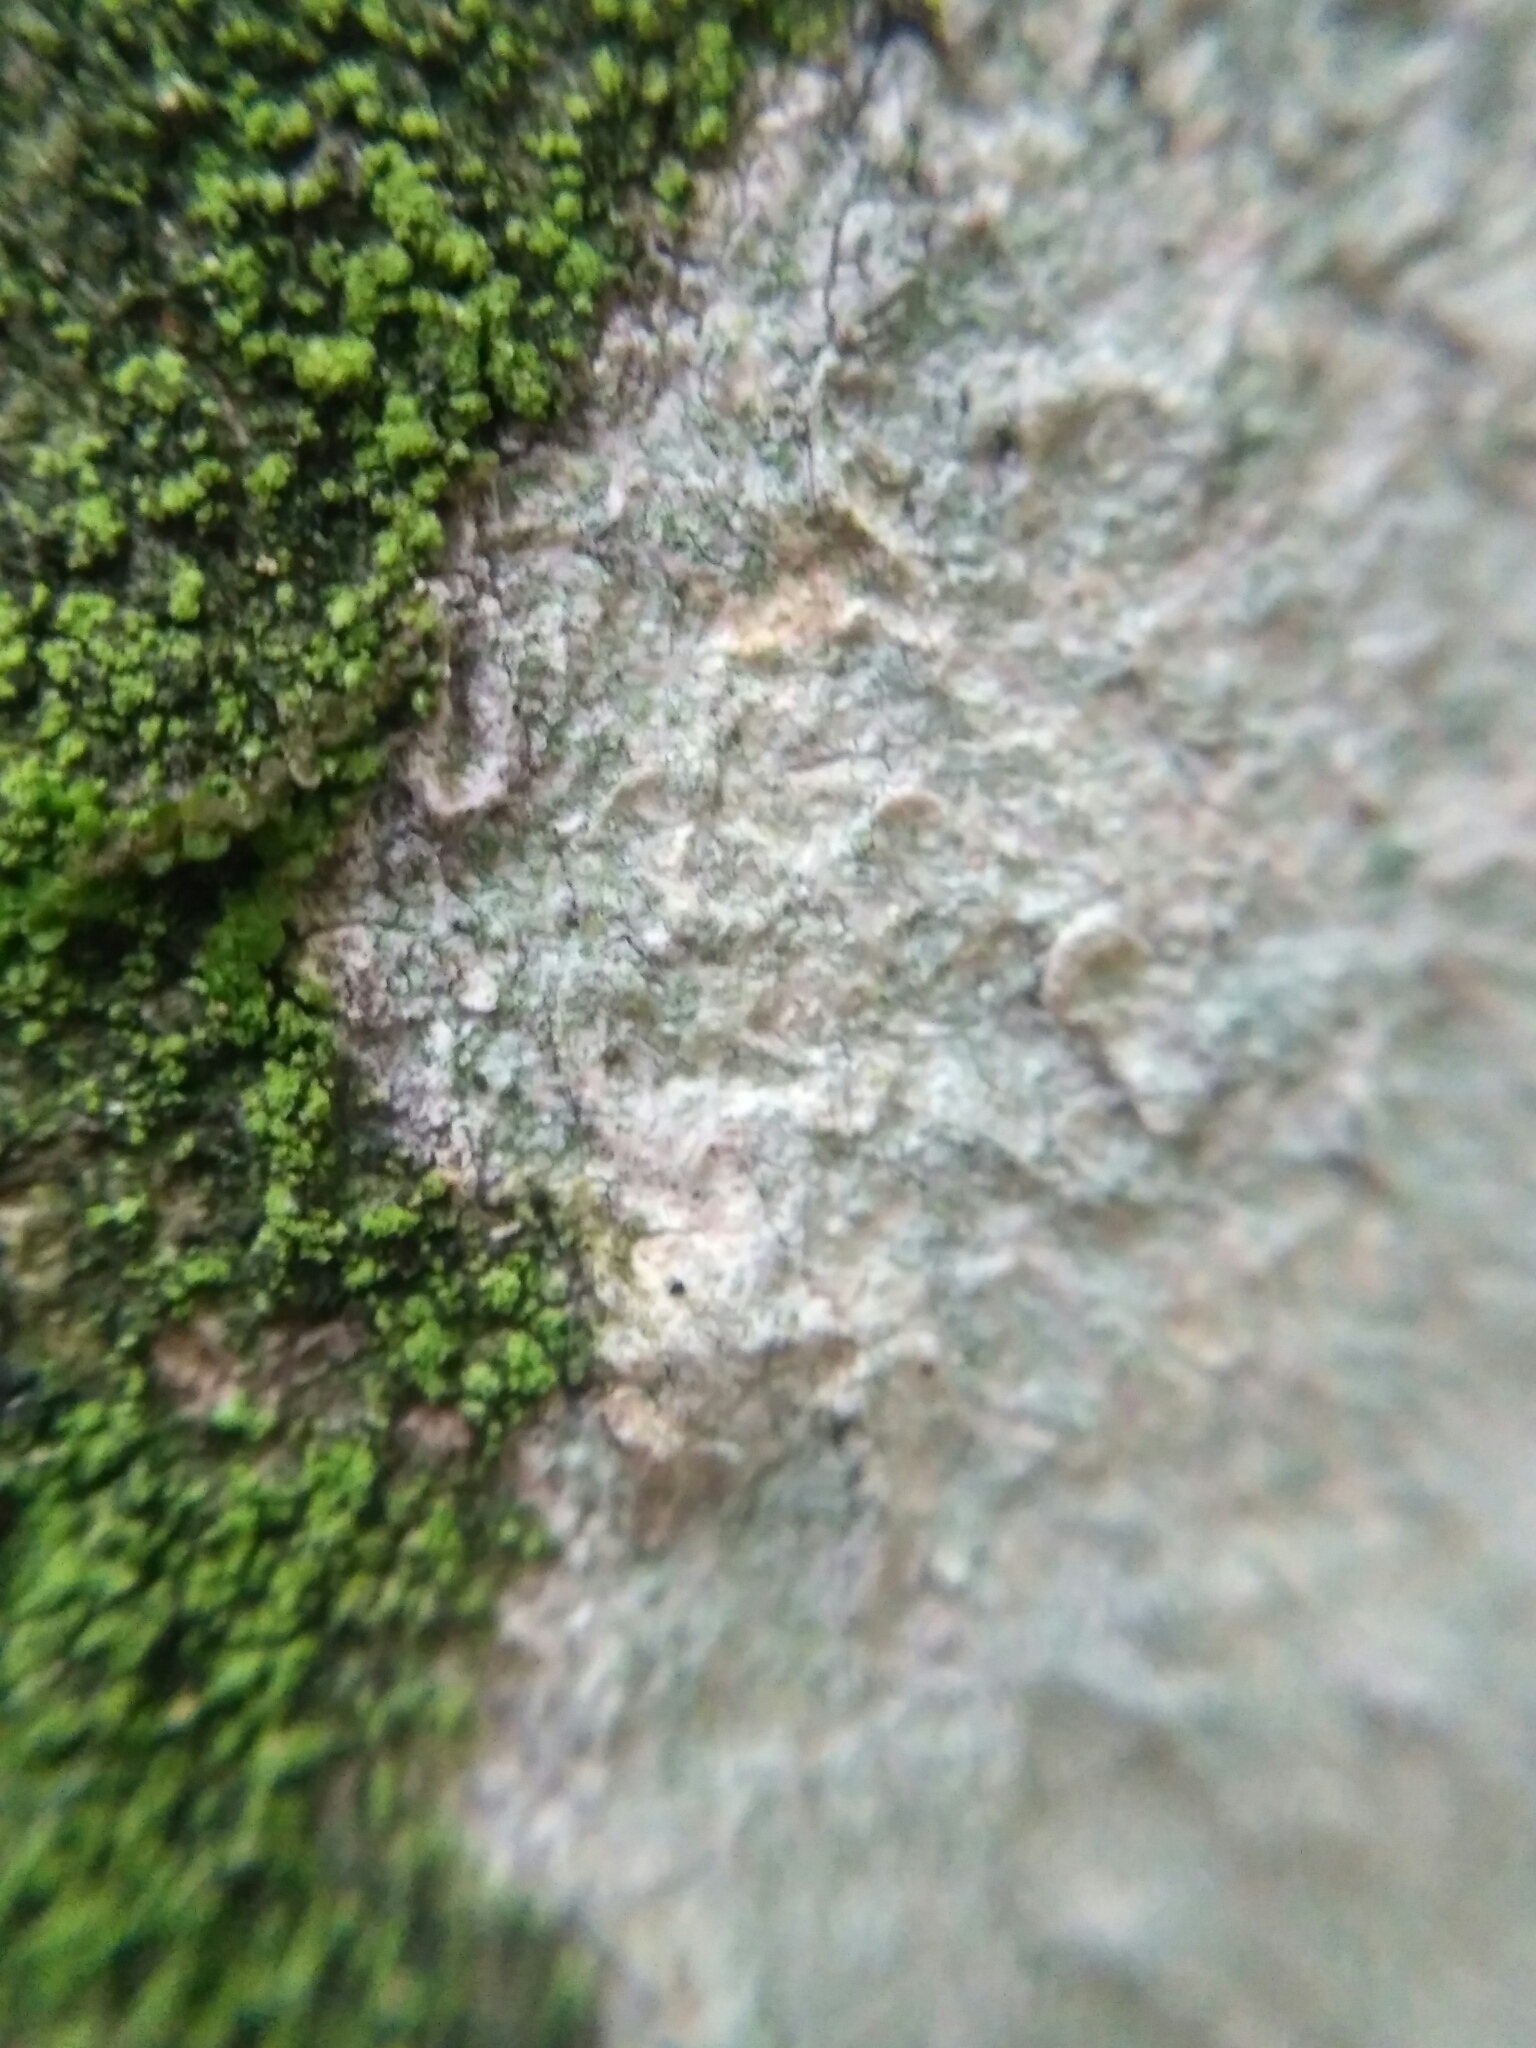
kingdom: Fungi
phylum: Ascomycota
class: Lecanoromycetes
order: Ostropales
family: Phlyctidaceae
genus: Phlyctis
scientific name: Phlyctis argena
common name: Whitewash lichen
